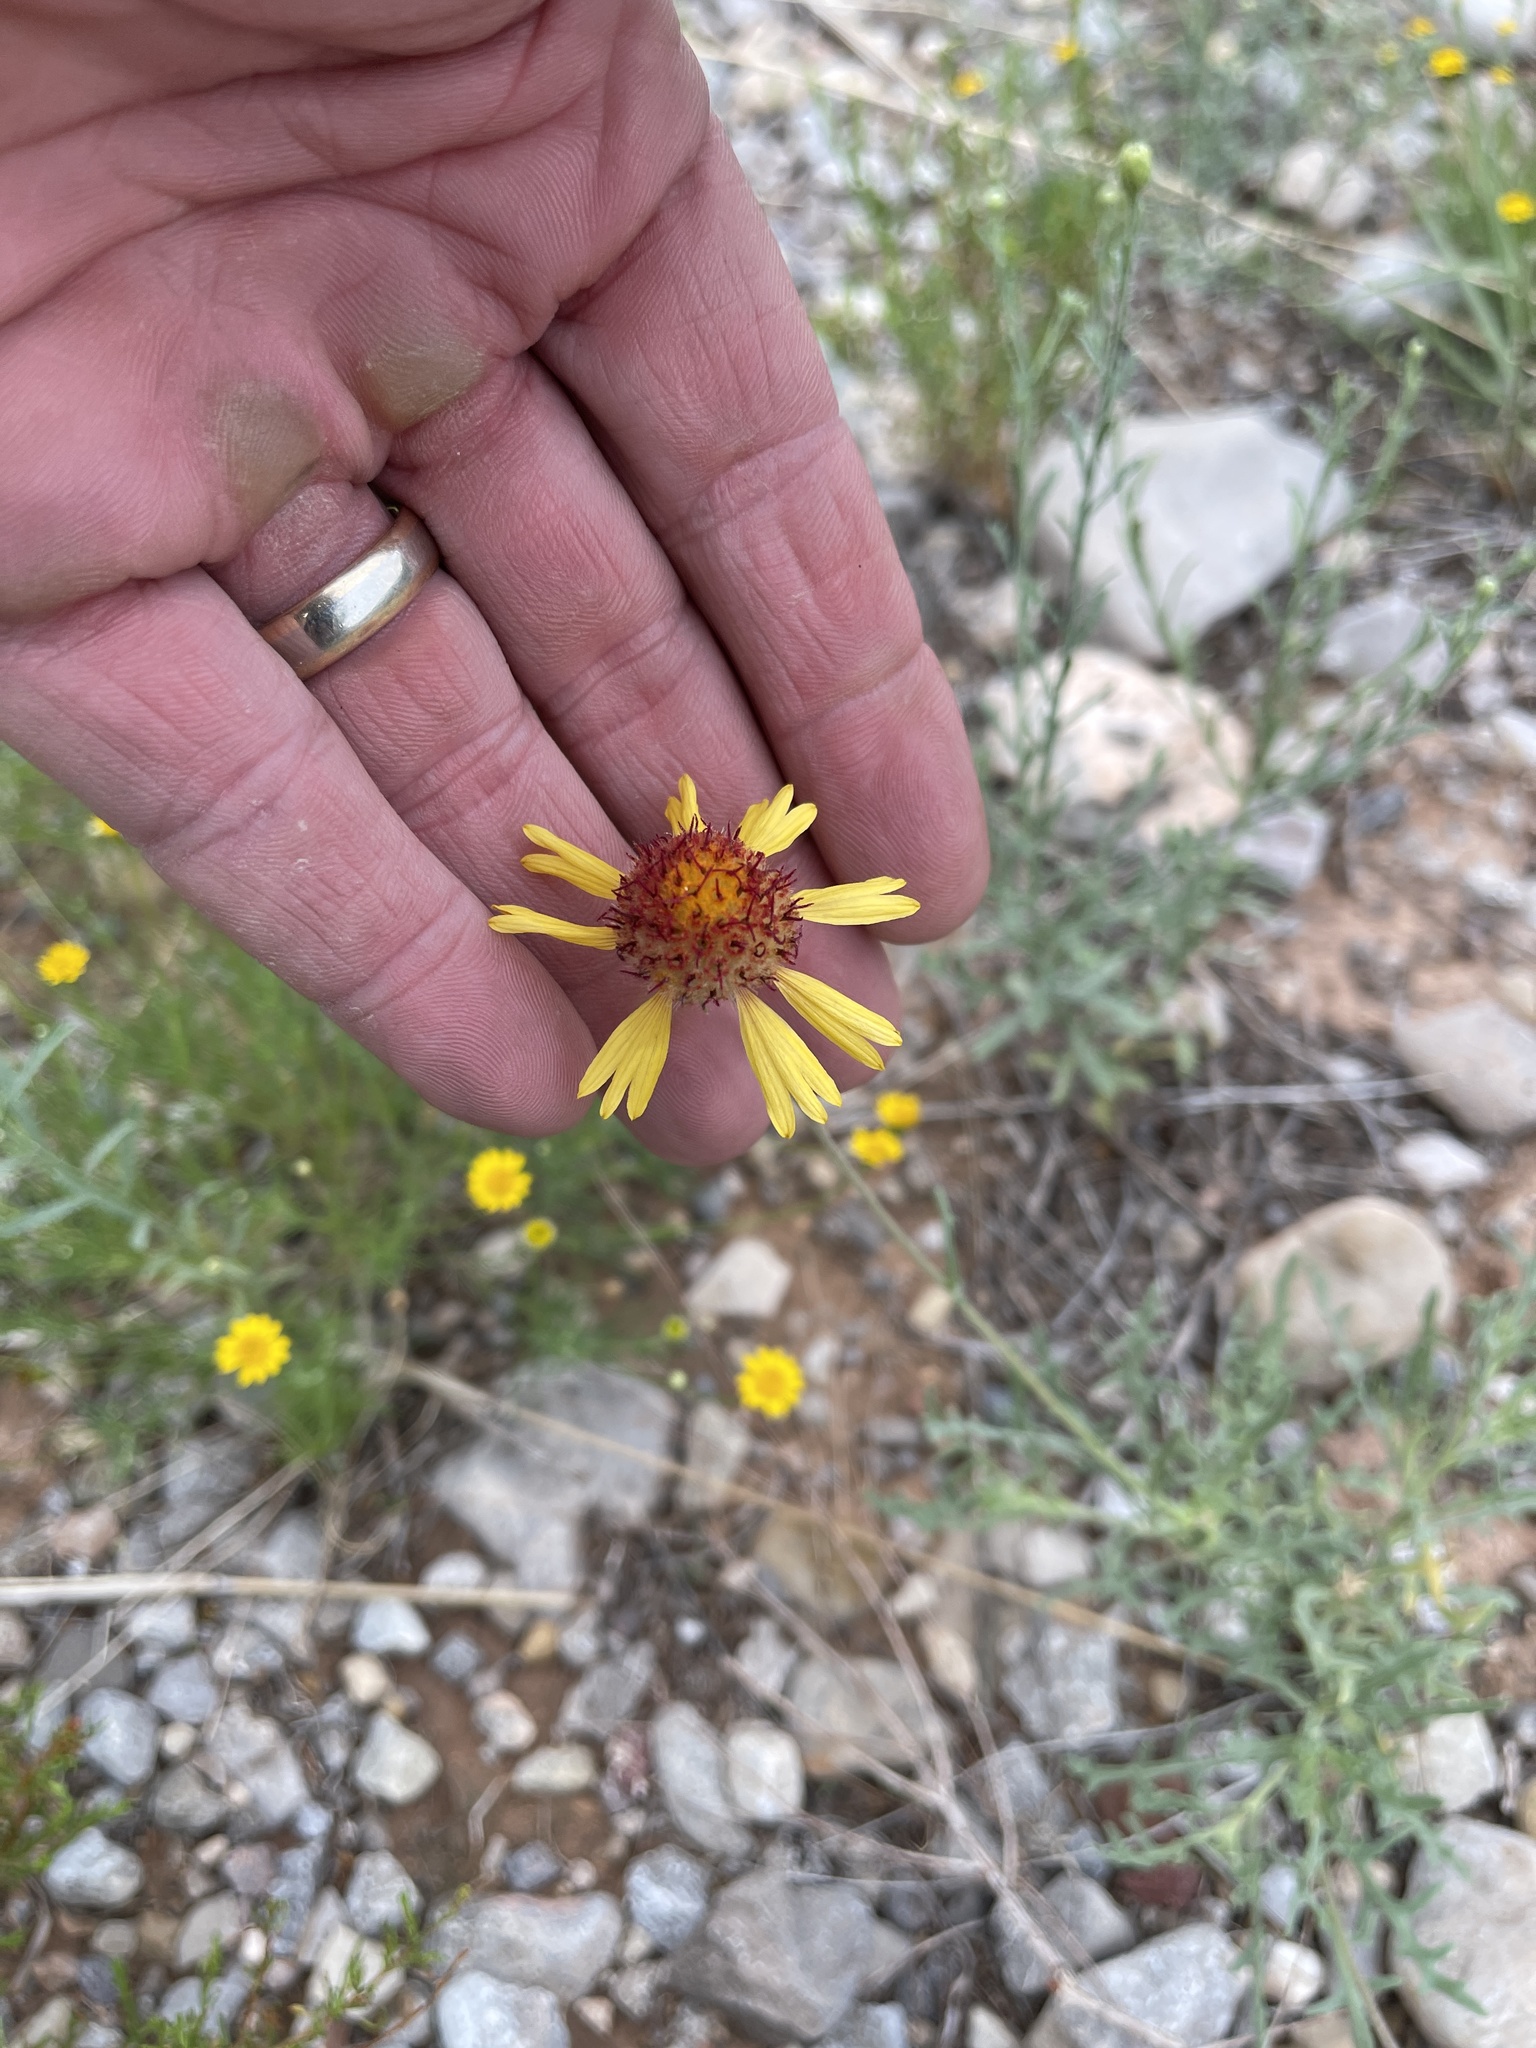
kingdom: Plantae
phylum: Tracheophyta
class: Magnoliopsida
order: Asterales
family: Asteraceae
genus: Gaillardia
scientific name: Gaillardia pinnatifida
